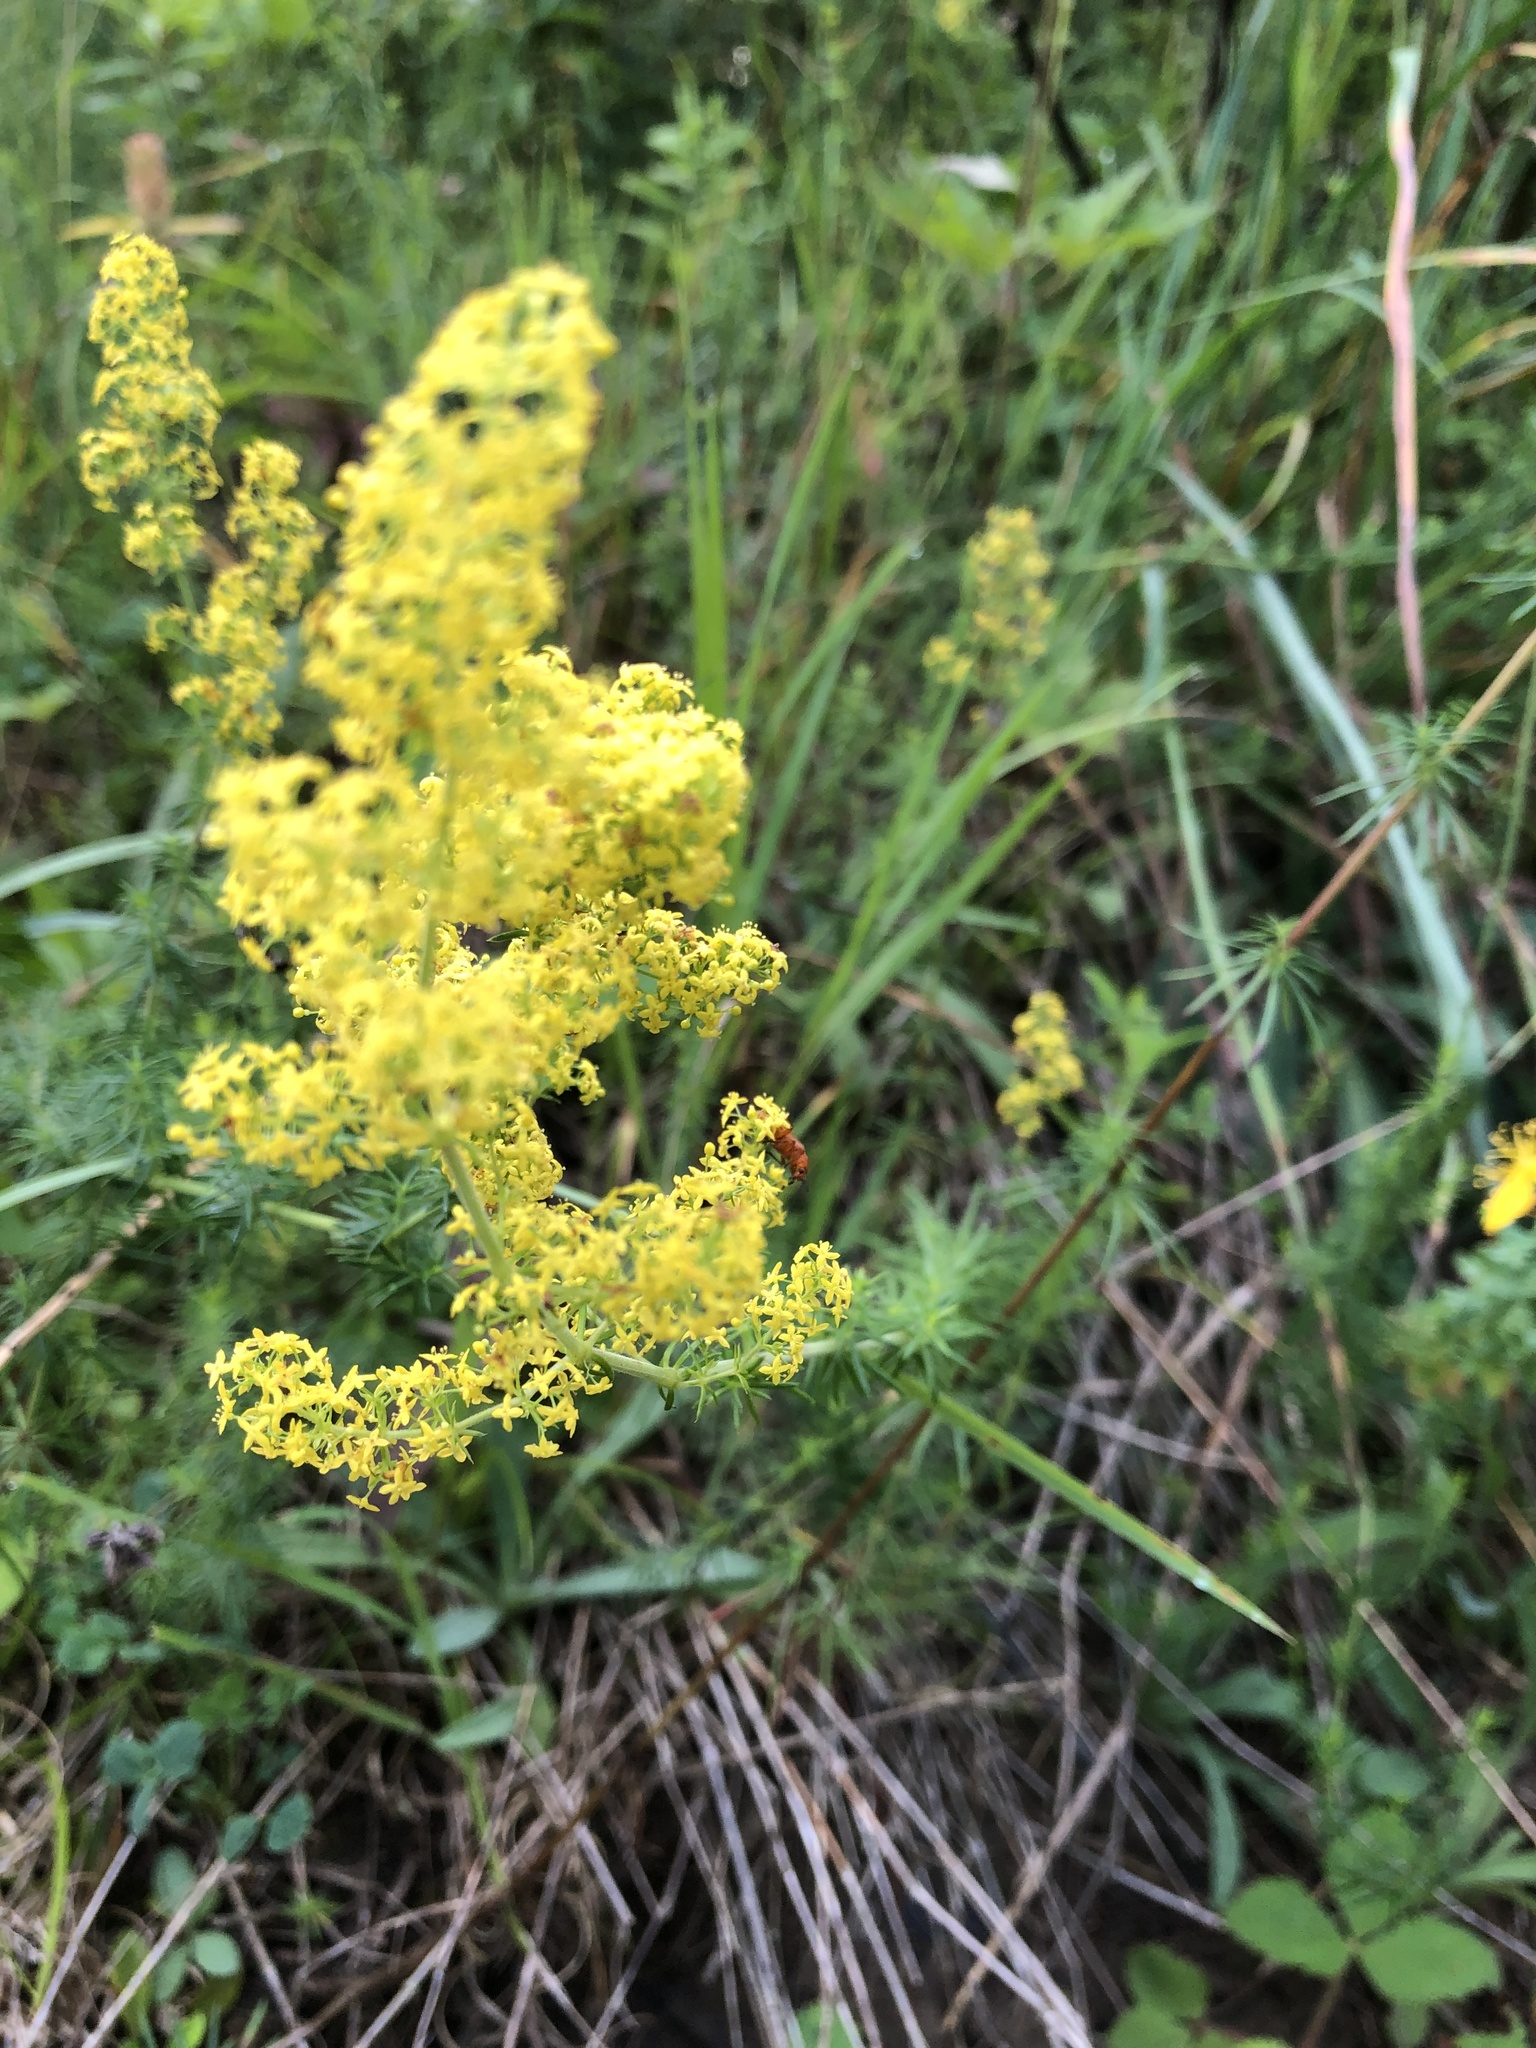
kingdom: Plantae
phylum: Tracheophyta
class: Magnoliopsida
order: Gentianales
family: Rubiaceae
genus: Galium
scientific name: Galium verum
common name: Lady's bedstraw
